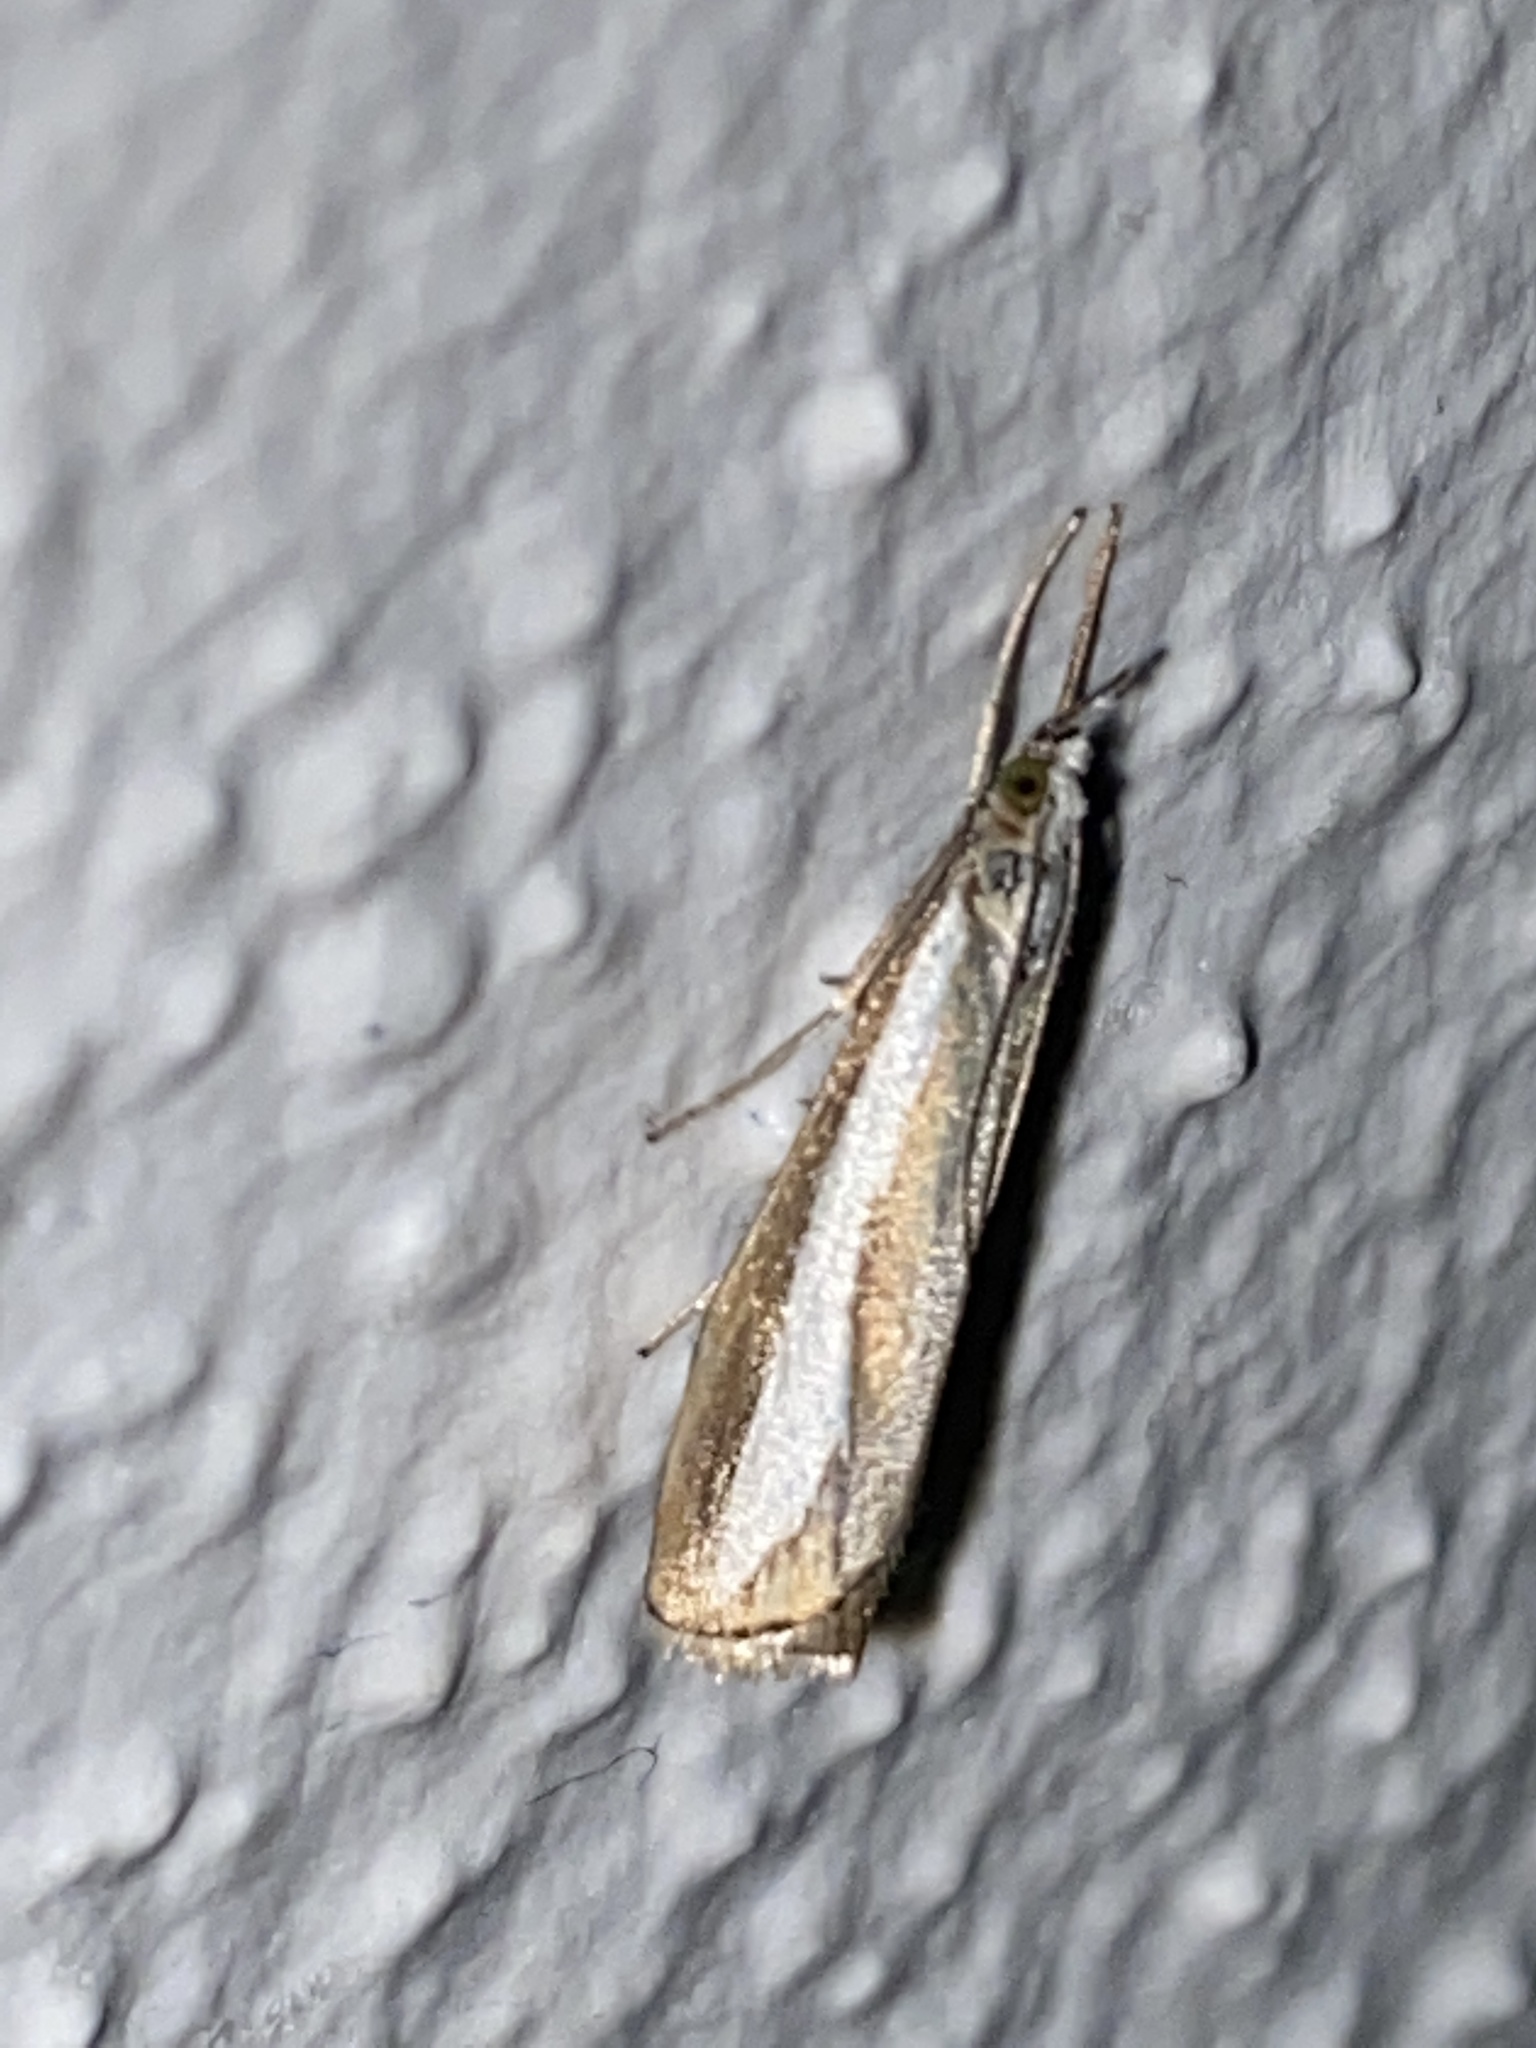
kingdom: Animalia
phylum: Arthropoda
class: Insecta
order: Lepidoptera
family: Crambidae
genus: Catoptria
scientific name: Catoptria margaritellus
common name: Pearl-band grass veneer
